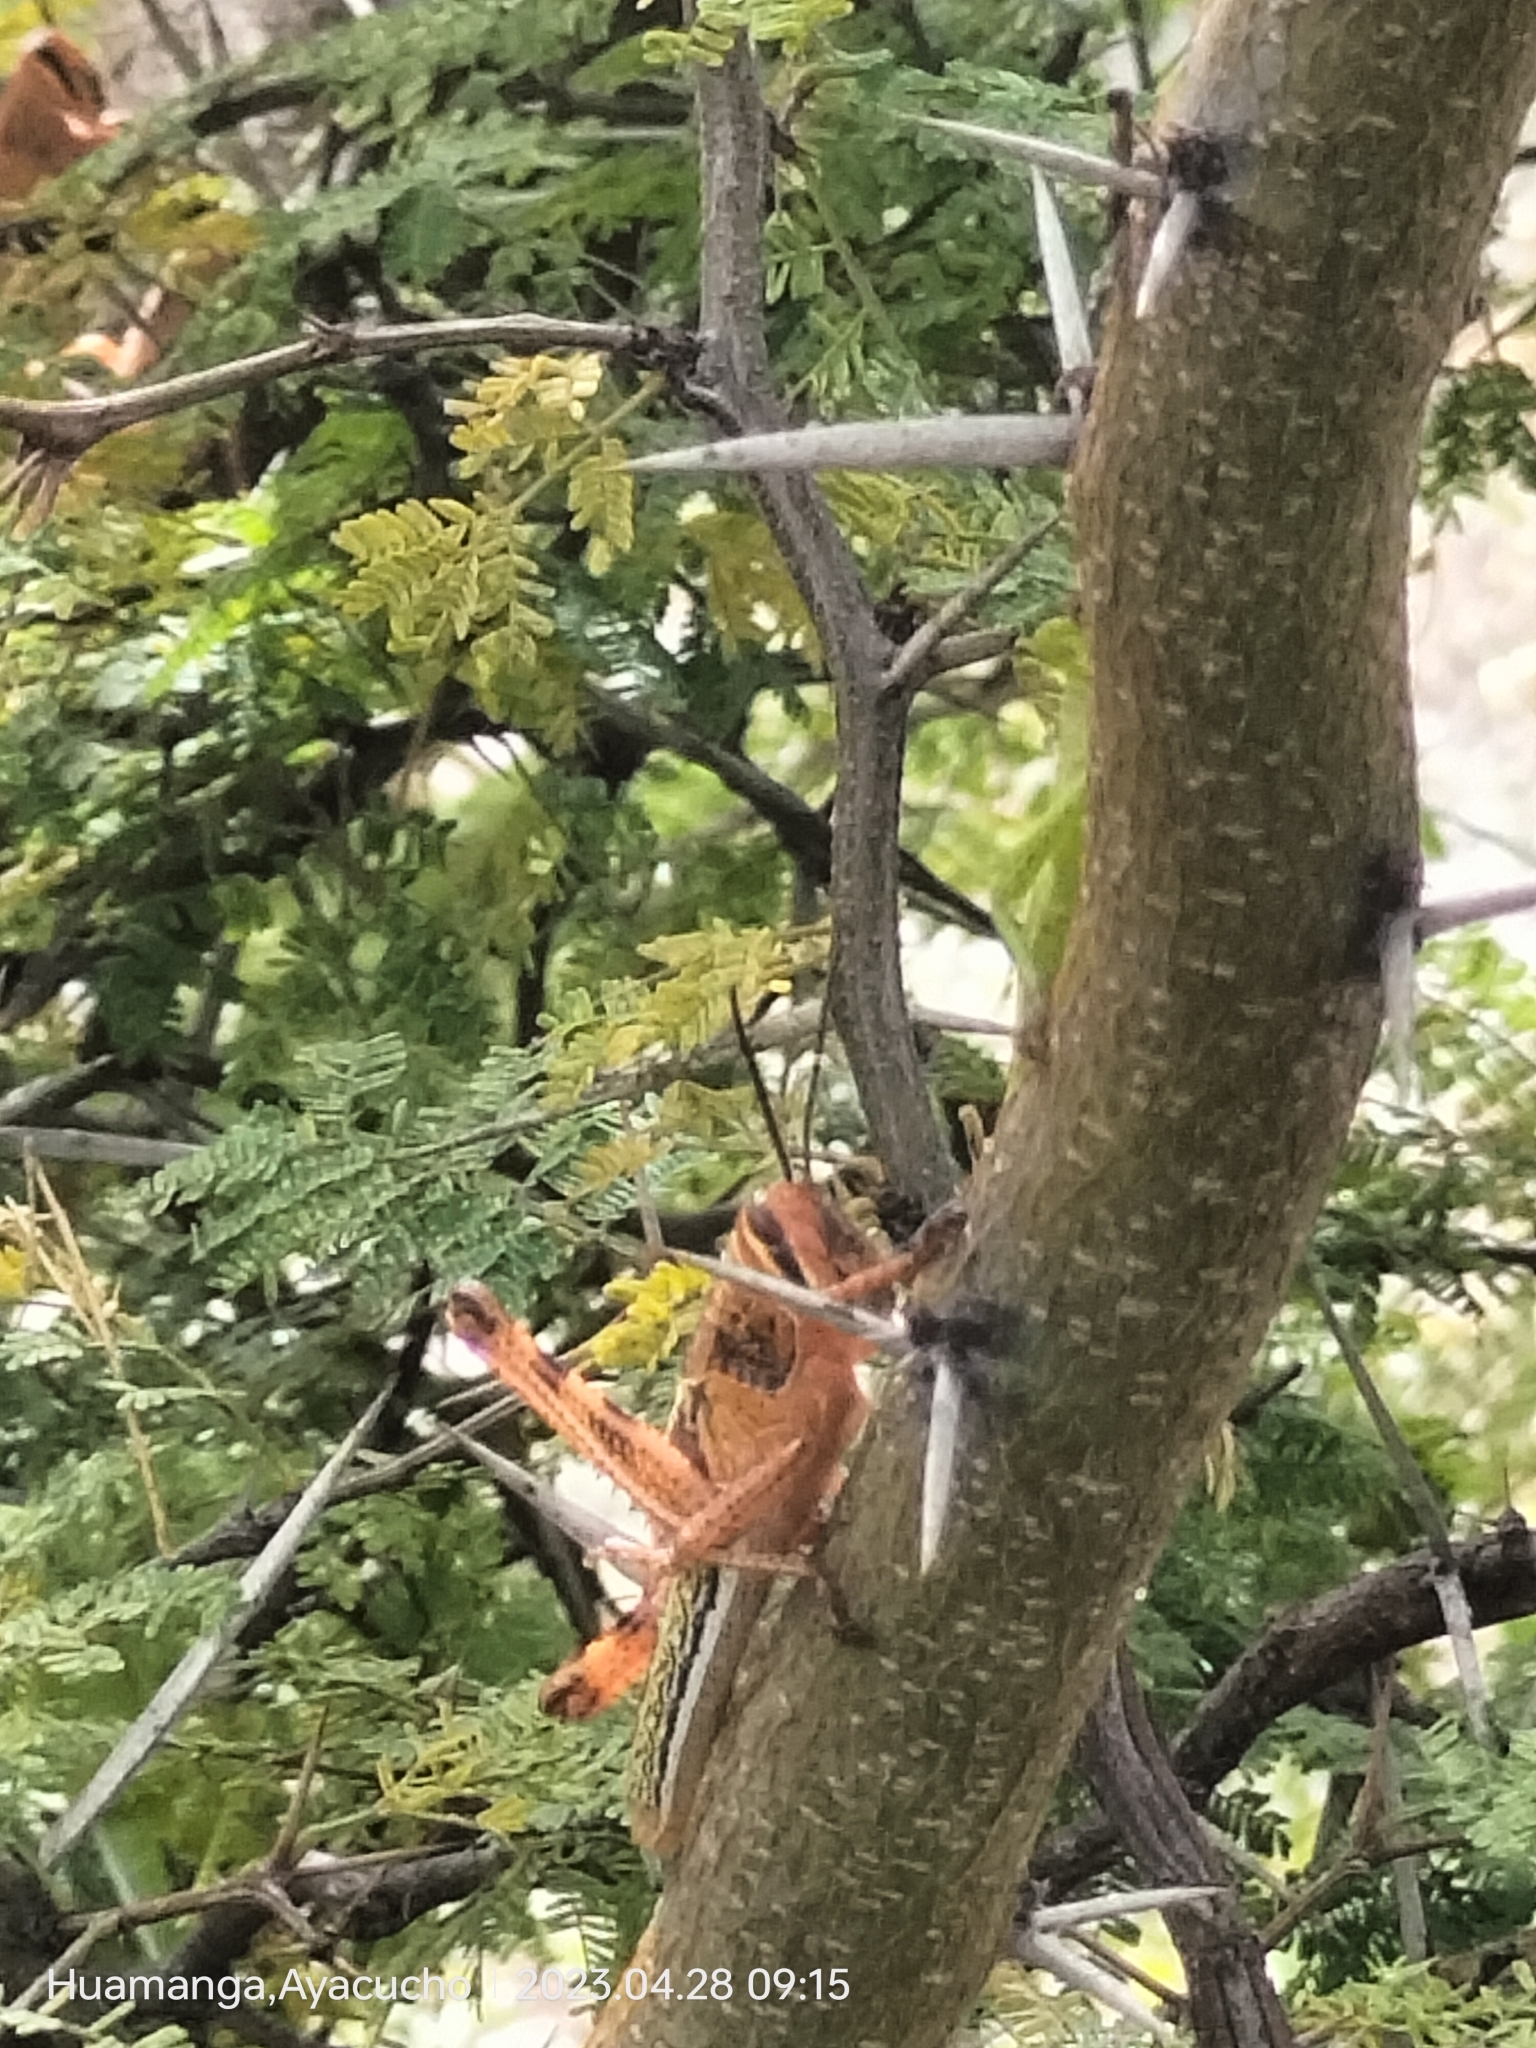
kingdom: Animalia
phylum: Arthropoda
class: Insecta
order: Orthoptera
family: Acrididae
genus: Schistocerca
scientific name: Schistocerca piceifrons
